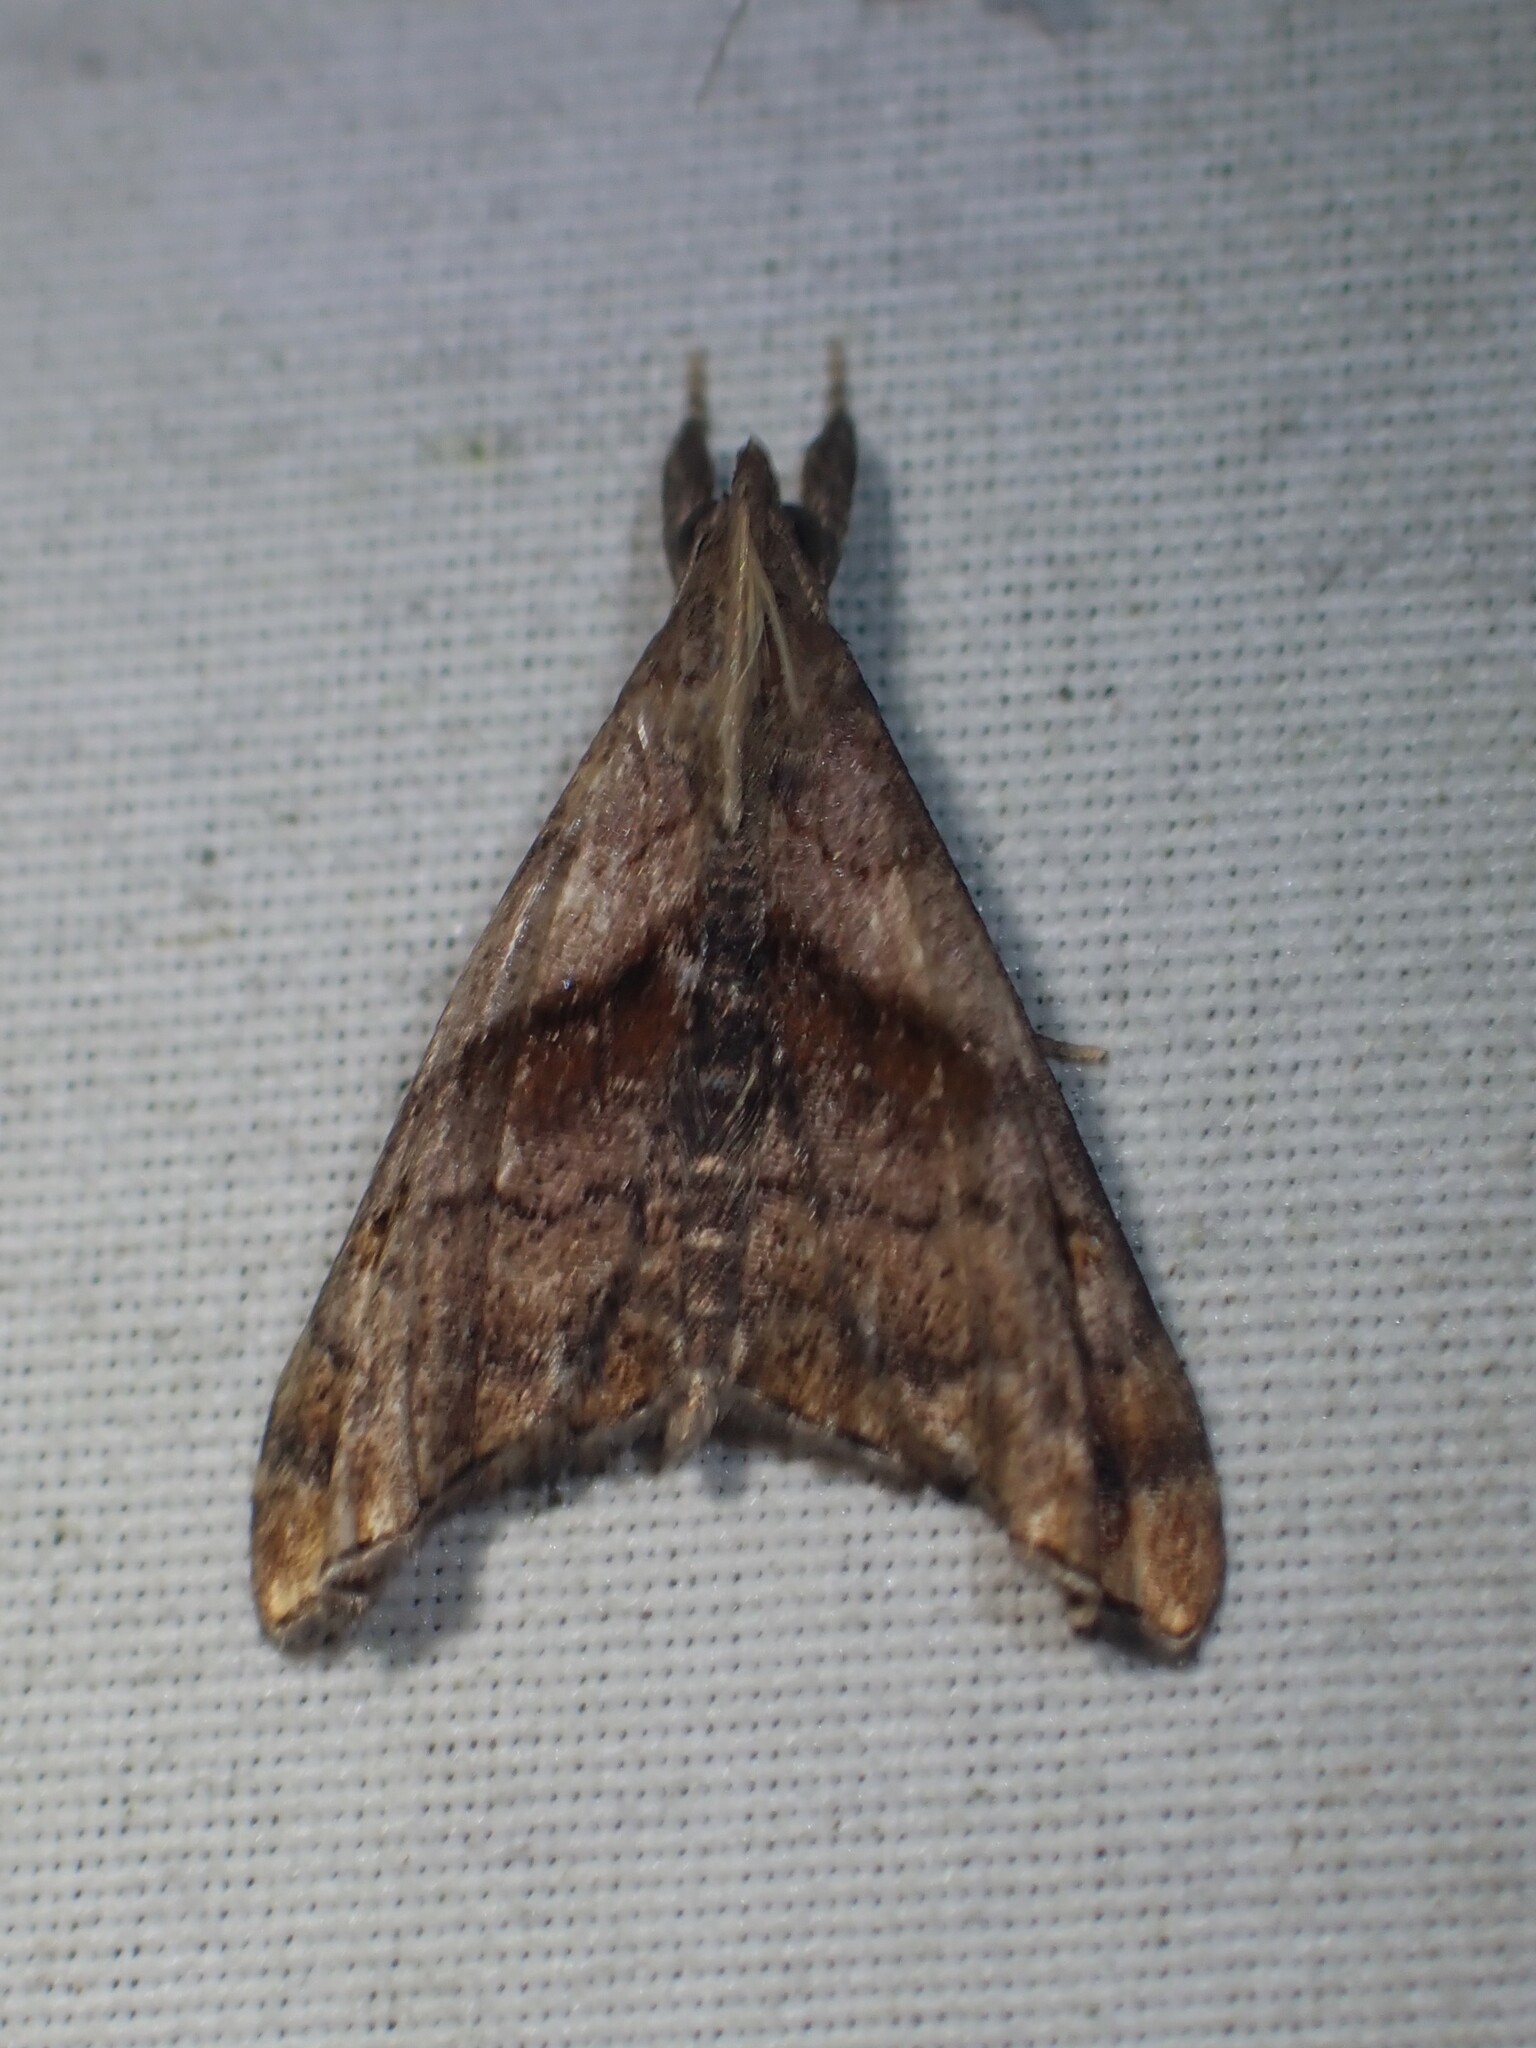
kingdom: Animalia
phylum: Arthropoda
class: Insecta
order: Lepidoptera
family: Erebidae
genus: Palthis
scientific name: Palthis angulalis
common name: Dark-spotted palthis moth
